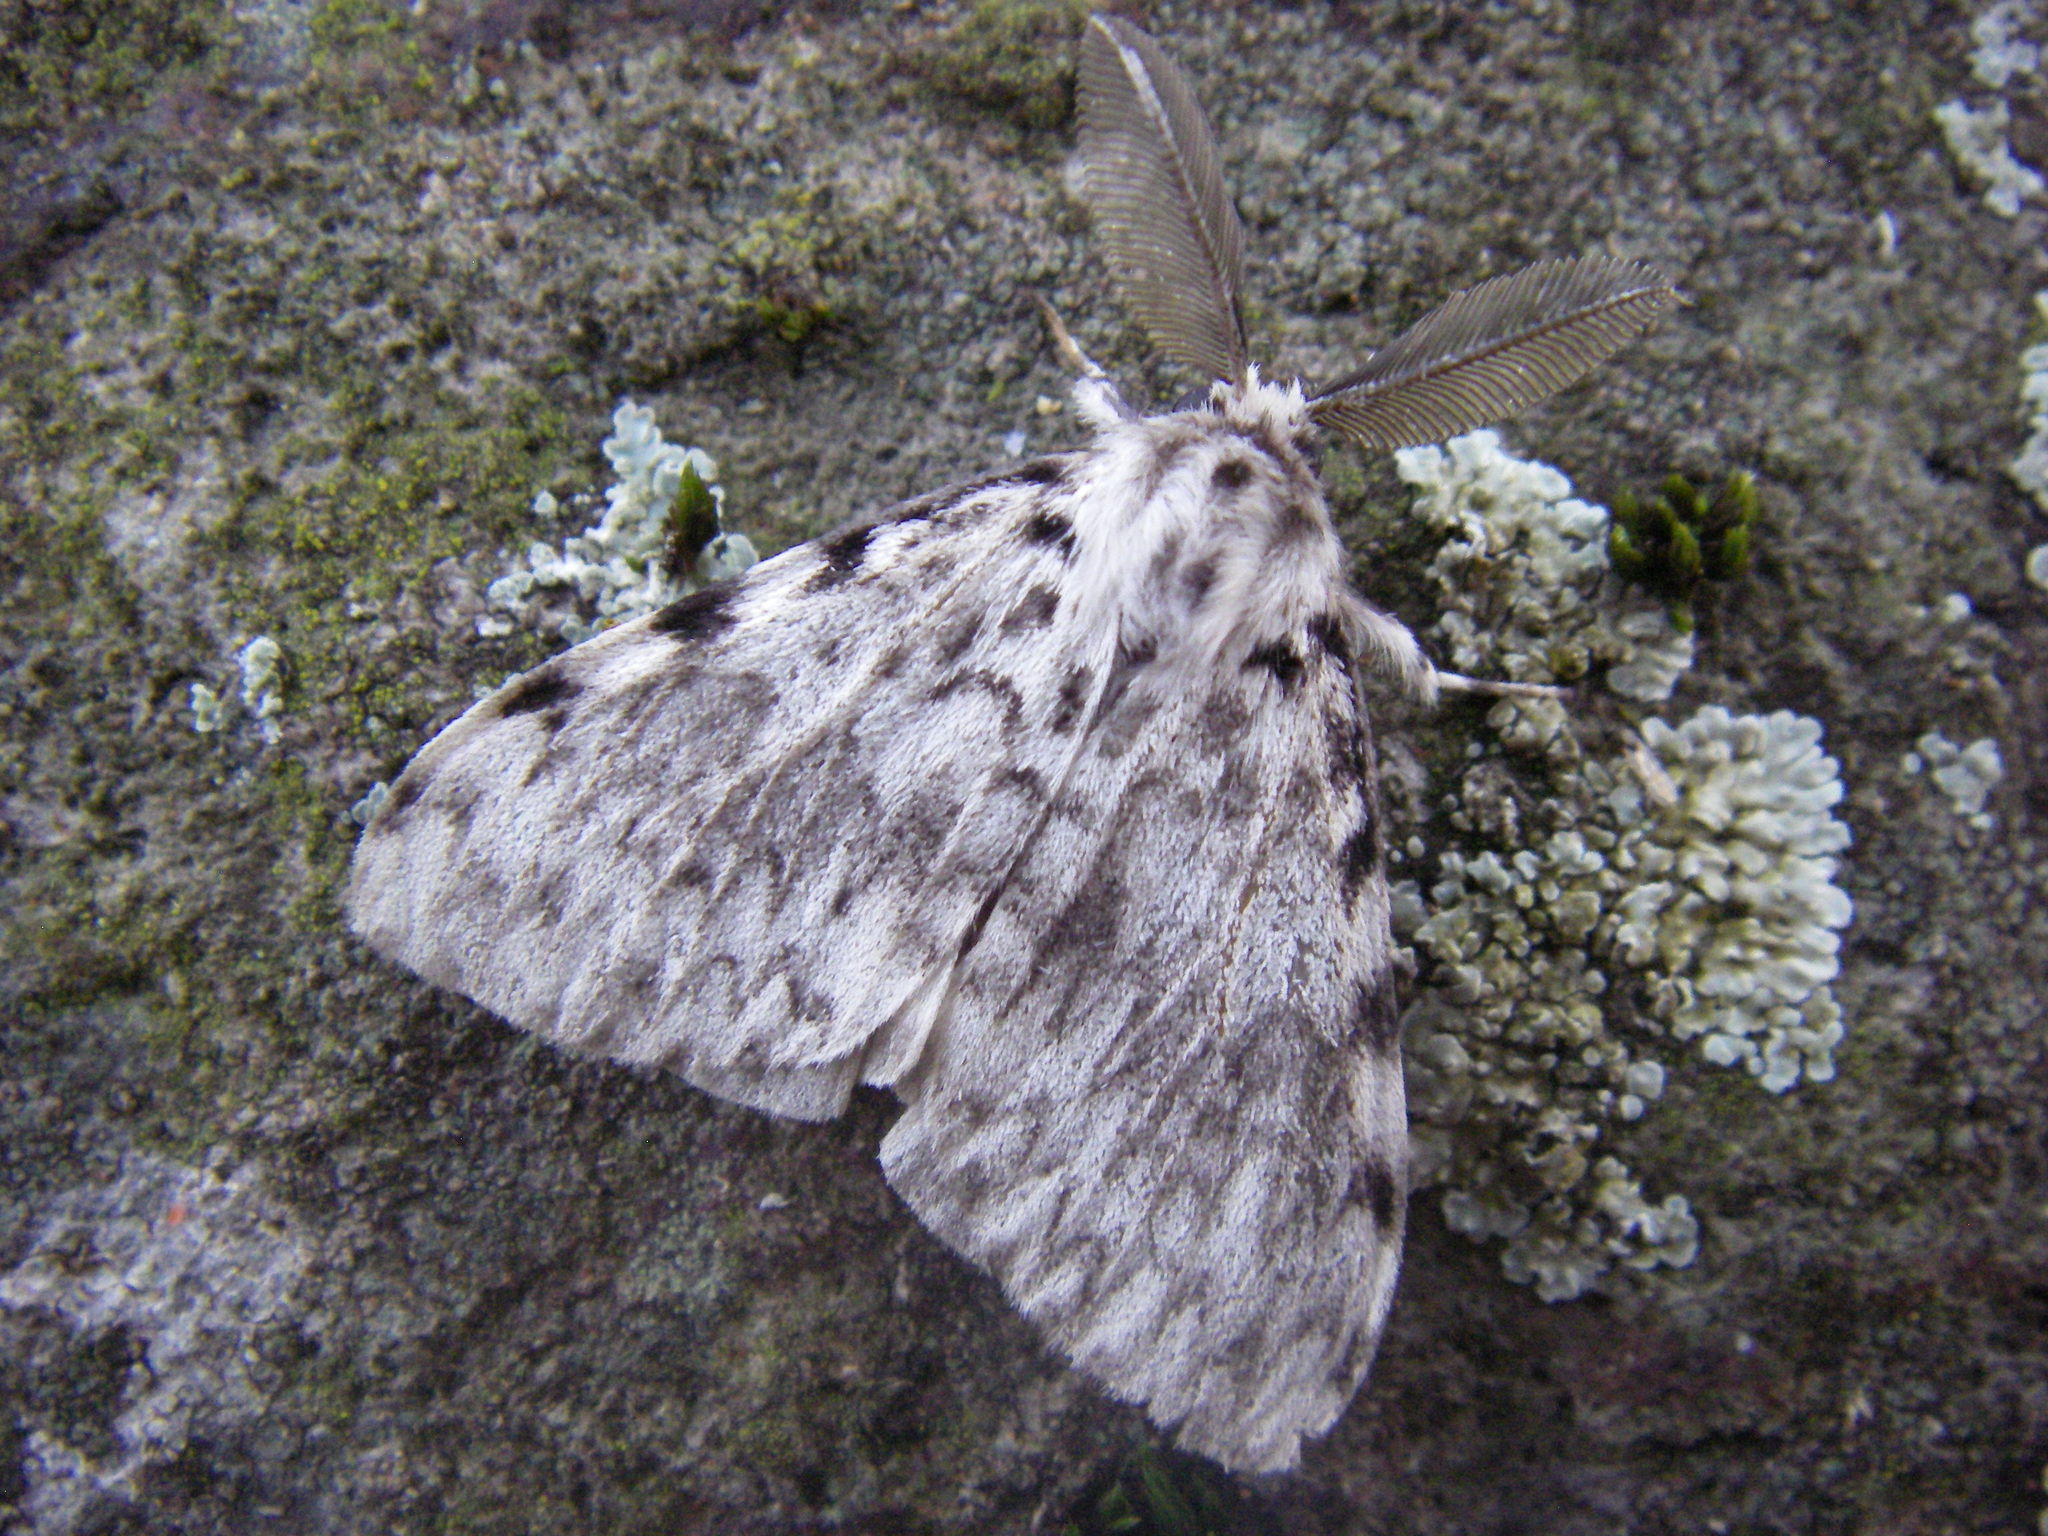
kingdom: Animalia
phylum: Arthropoda
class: Insecta
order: Lepidoptera
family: Erebidae
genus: Lymantria
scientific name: Lymantria monacha
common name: Black arches
